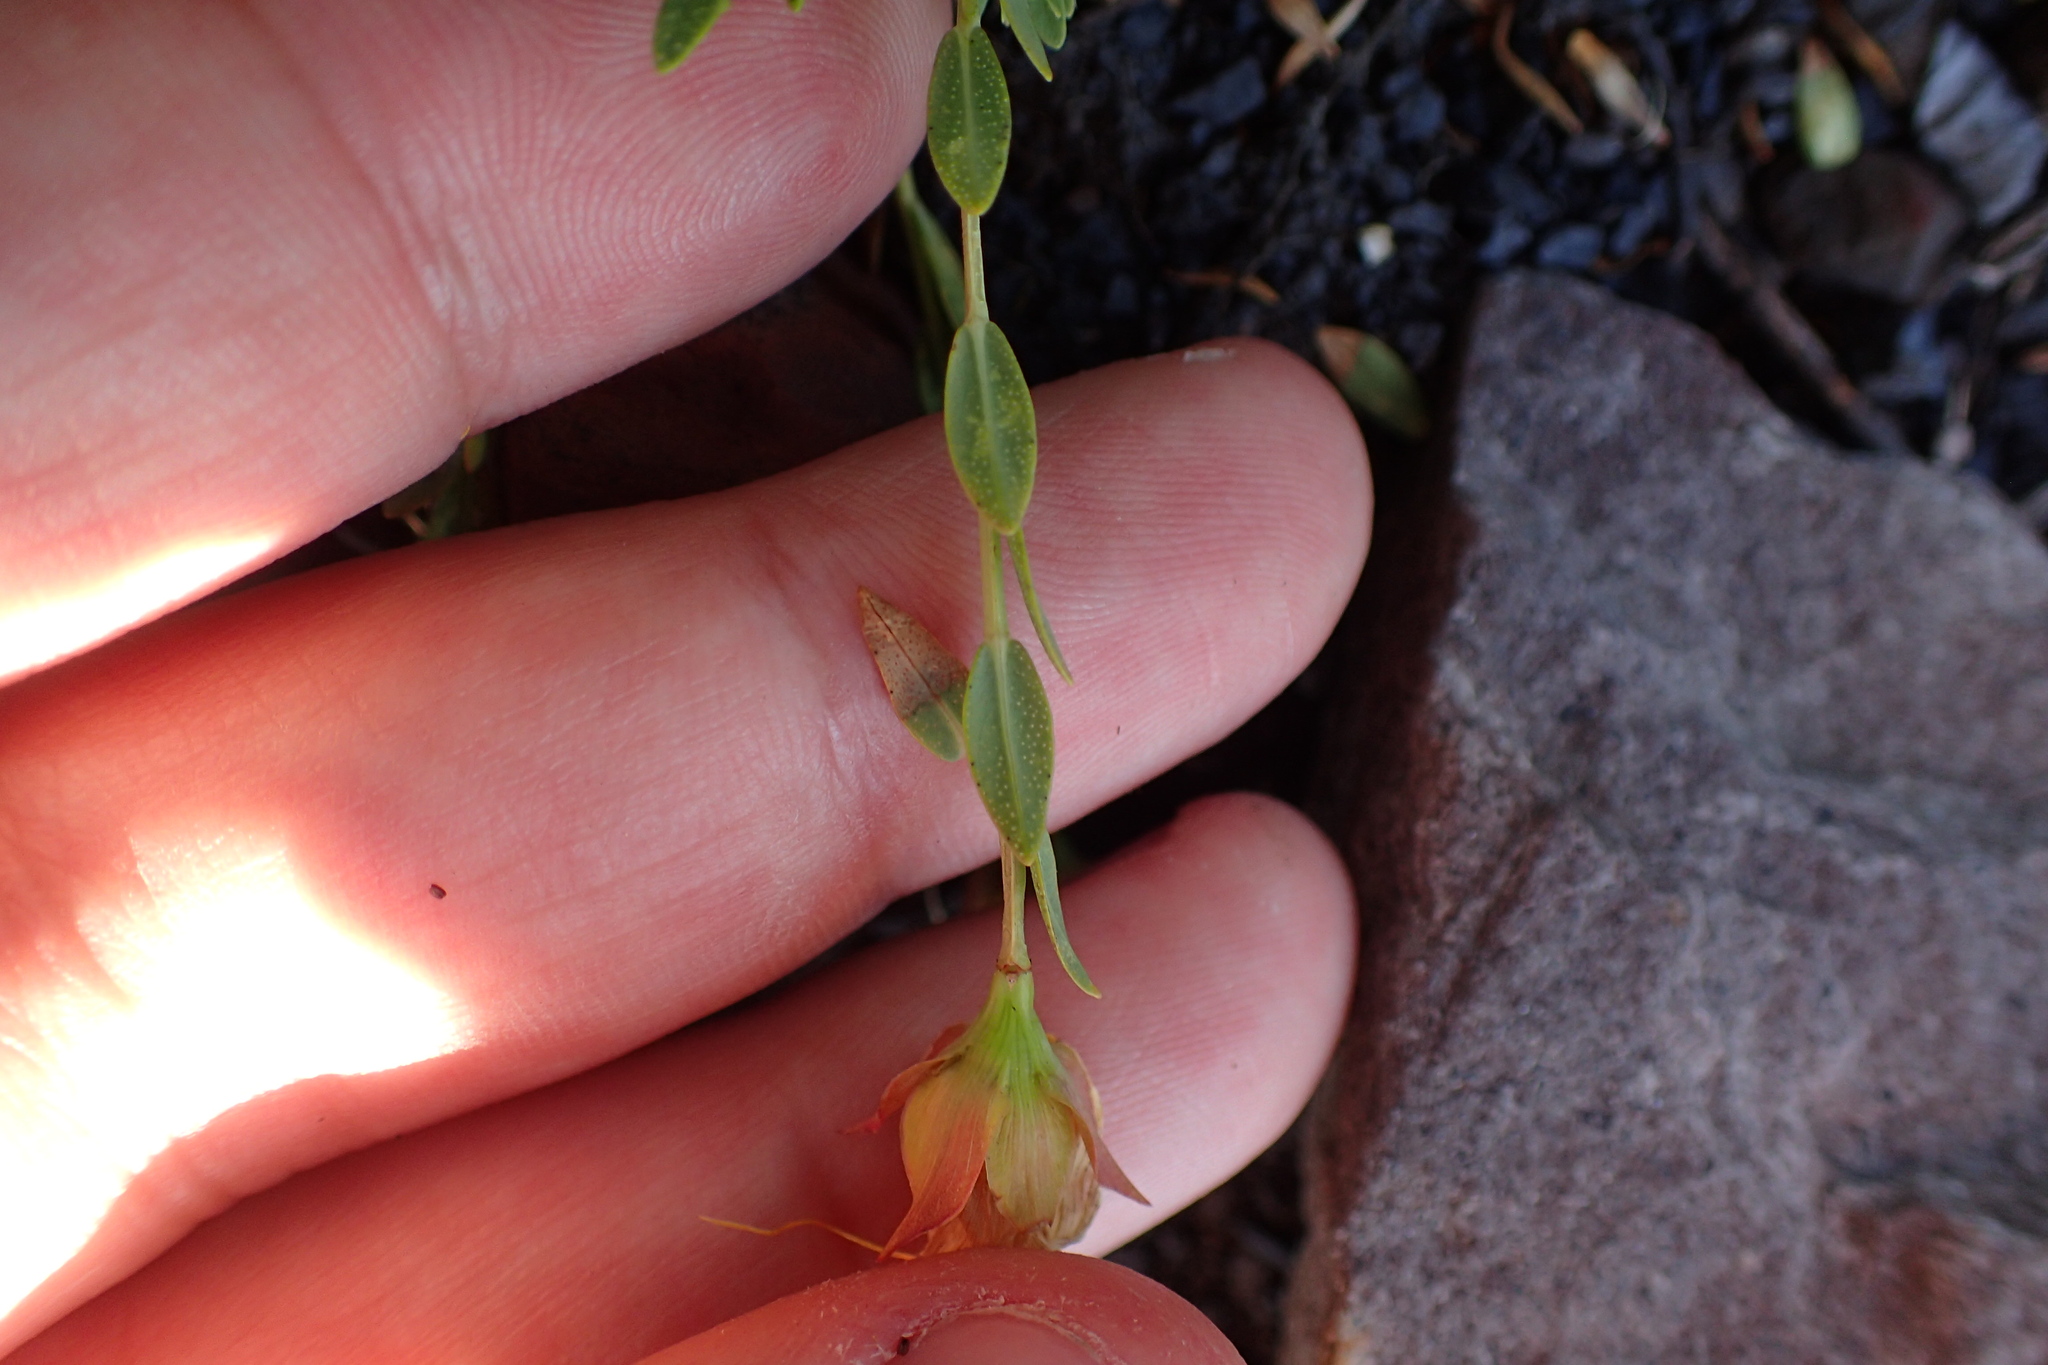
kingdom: Plantae
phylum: Tracheophyta
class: Magnoliopsida
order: Malpighiales
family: Hypericaceae
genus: Hypericum
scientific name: Hypericum olympicum
